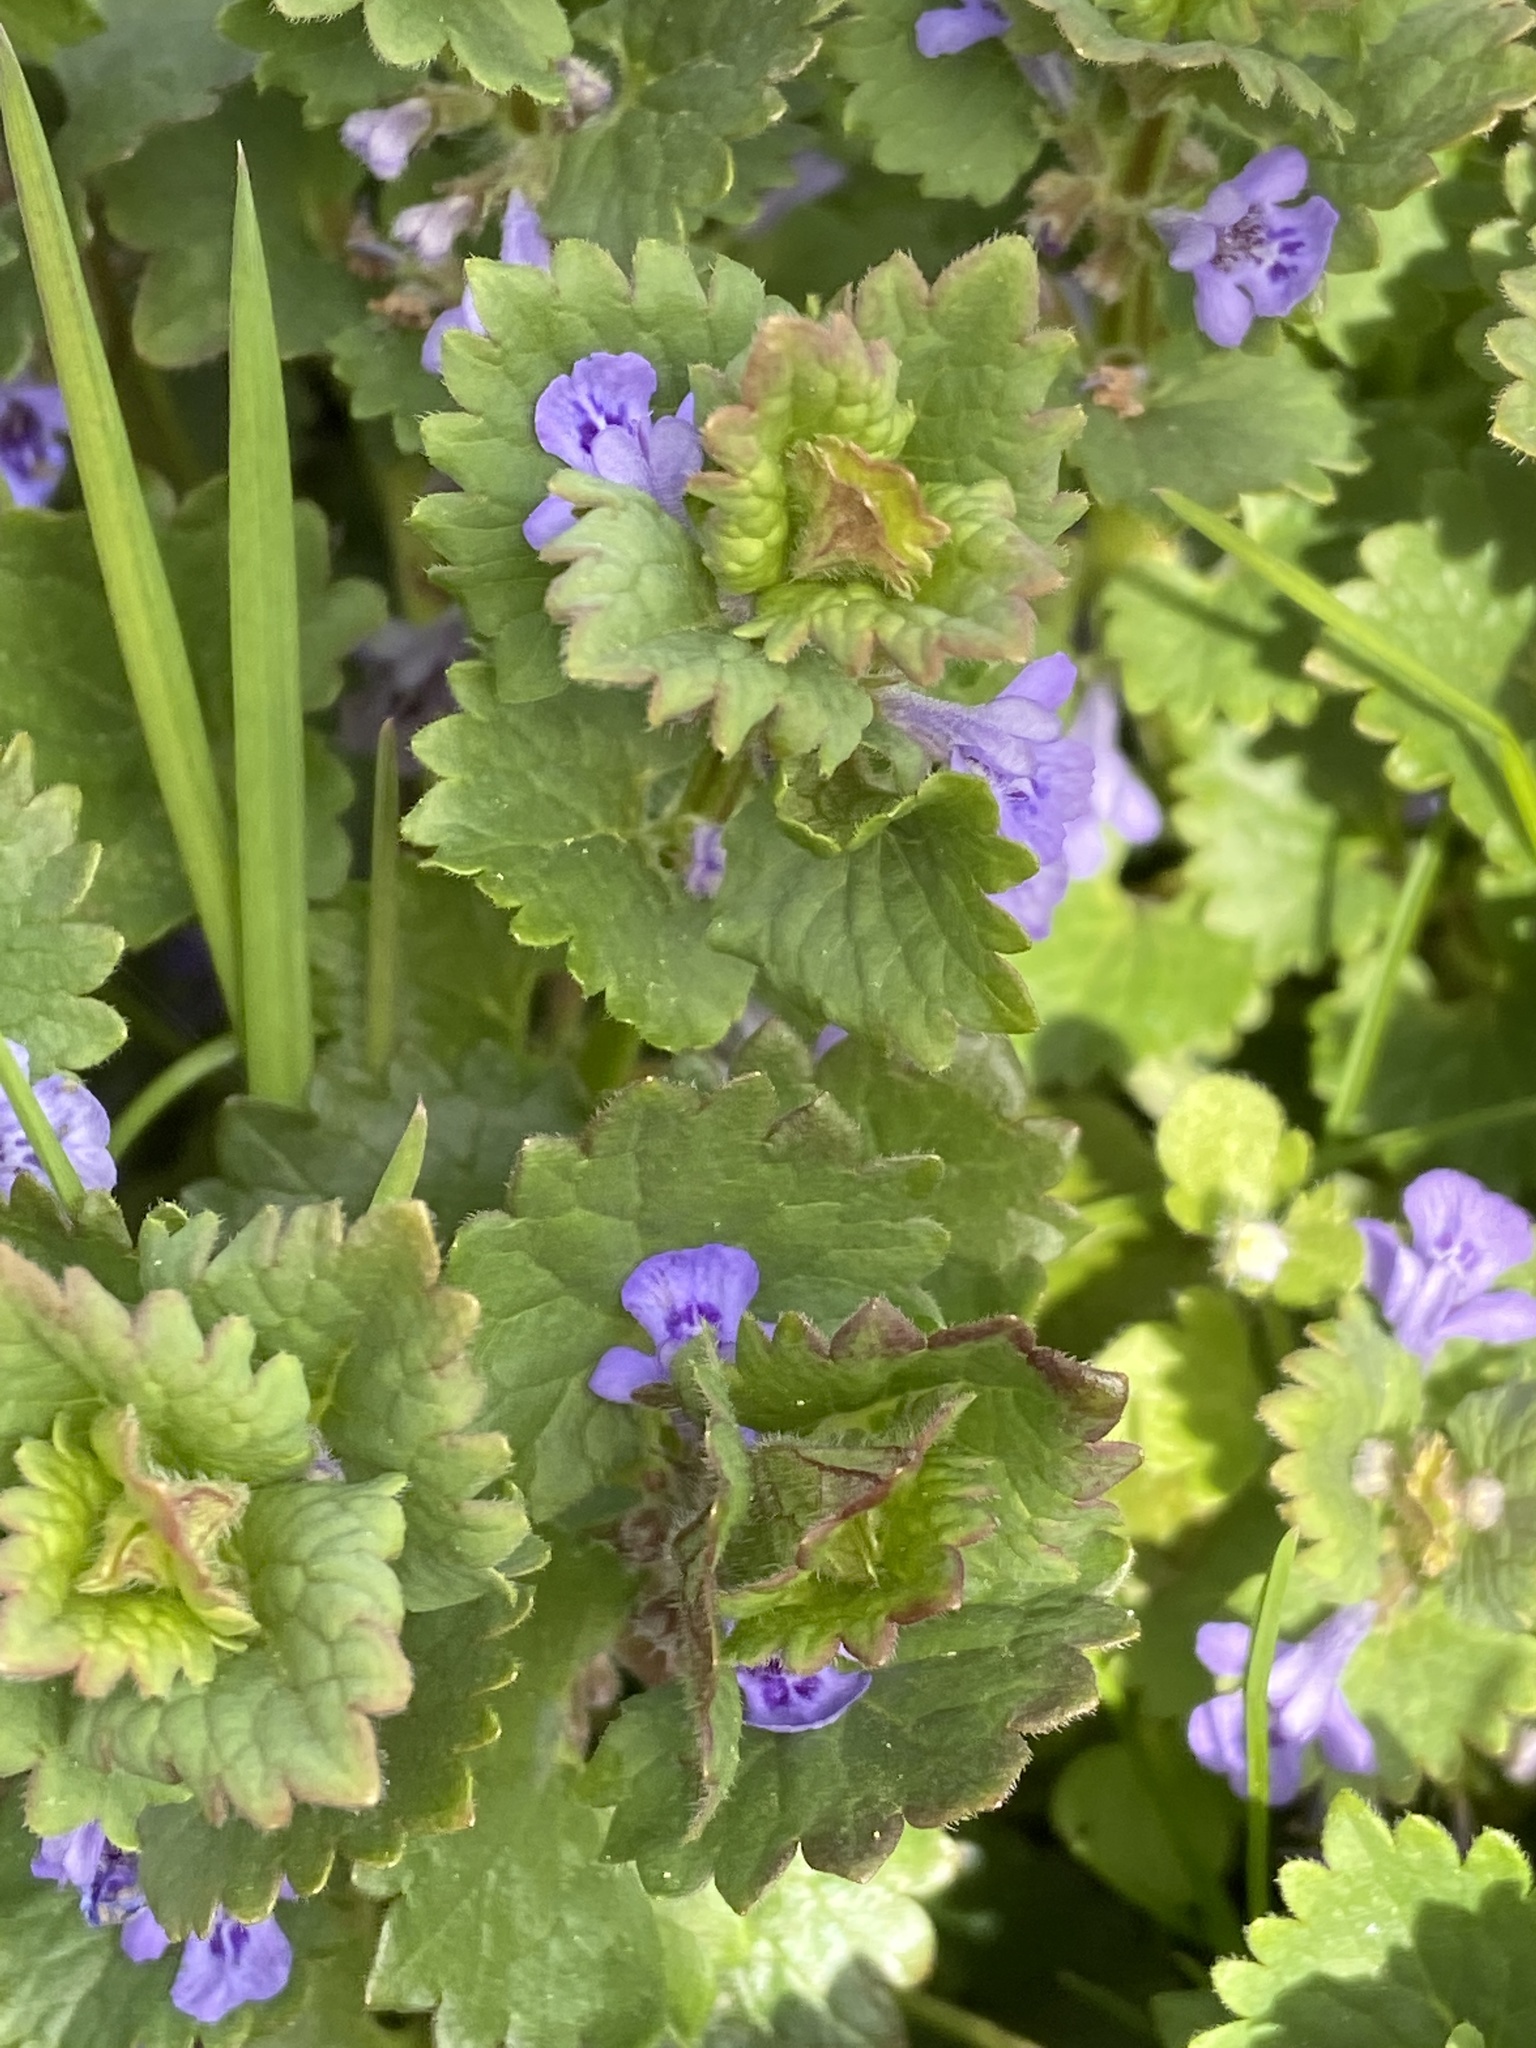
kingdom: Plantae
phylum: Tracheophyta
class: Magnoliopsida
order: Lamiales
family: Lamiaceae
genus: Glechoma
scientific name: Glechoma hederacea
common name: Ground ivy
